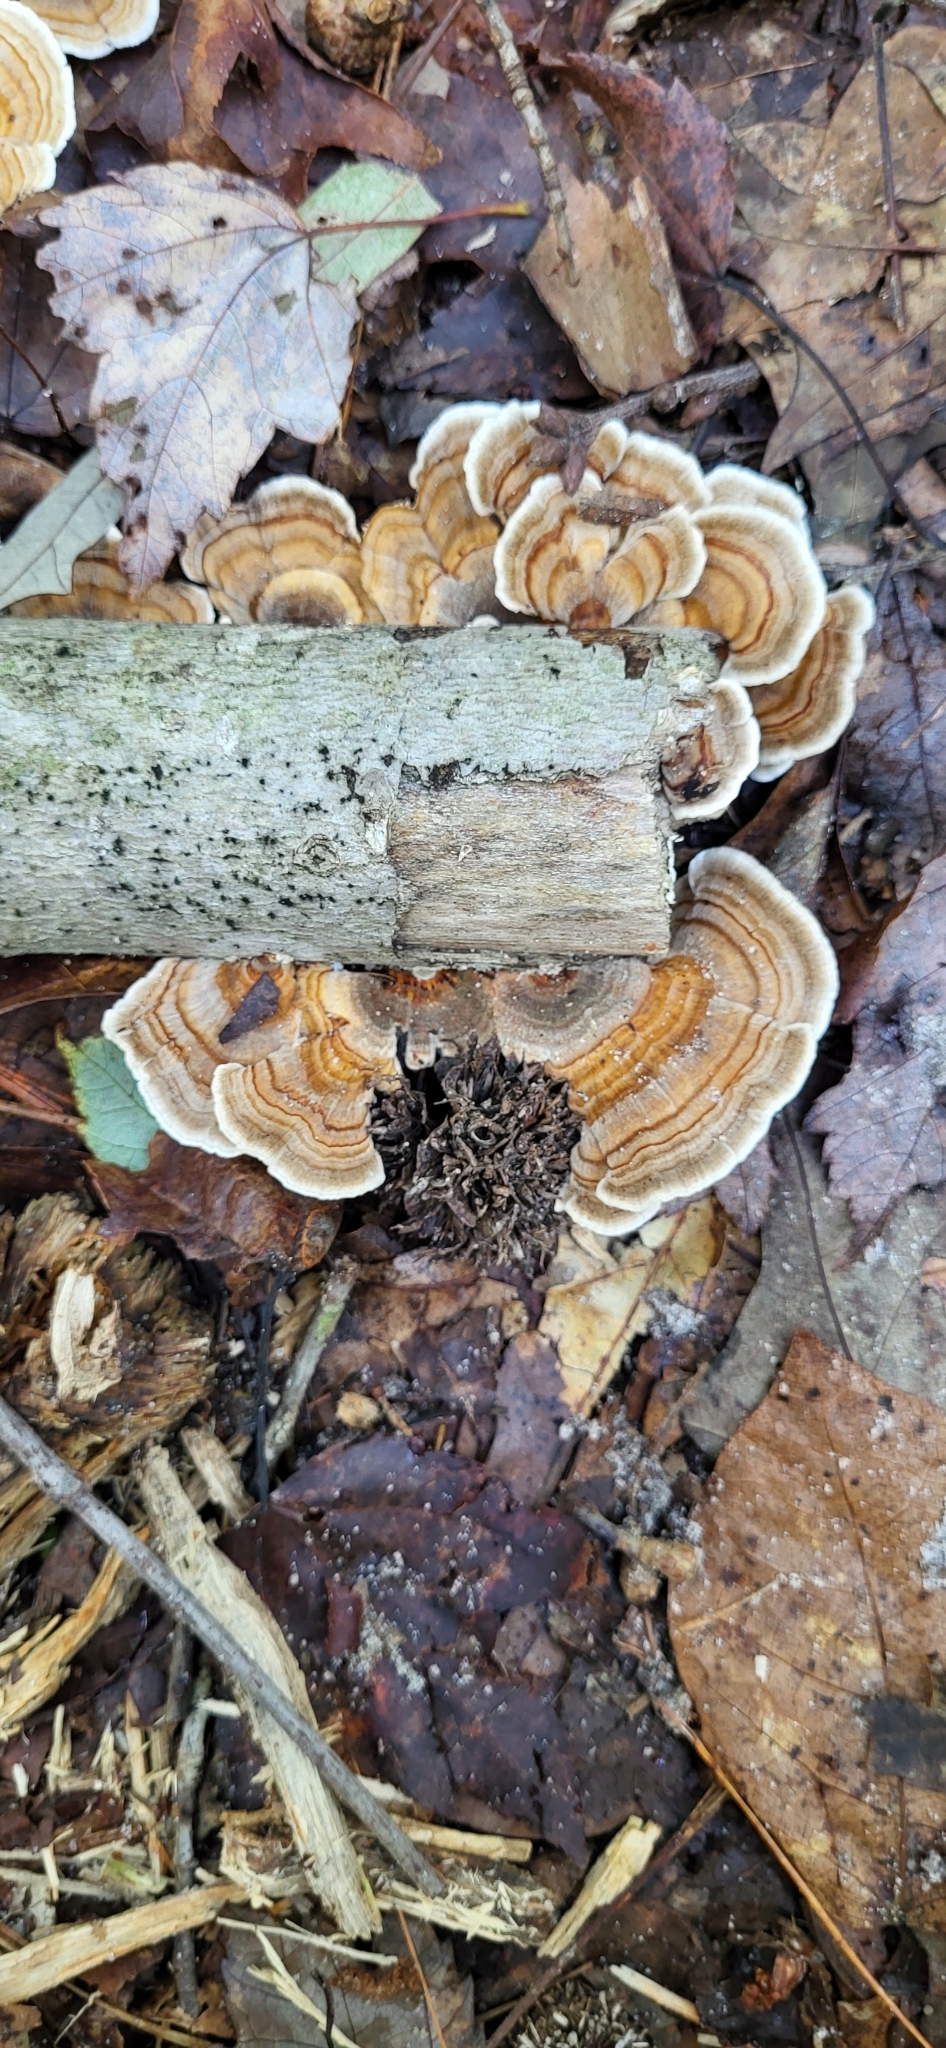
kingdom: Fungi
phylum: Basidiomycota
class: Agaricomycetes
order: Polyporales
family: Polyporaceae
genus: Trametes
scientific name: Trametes versicolor
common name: Turkeytail
